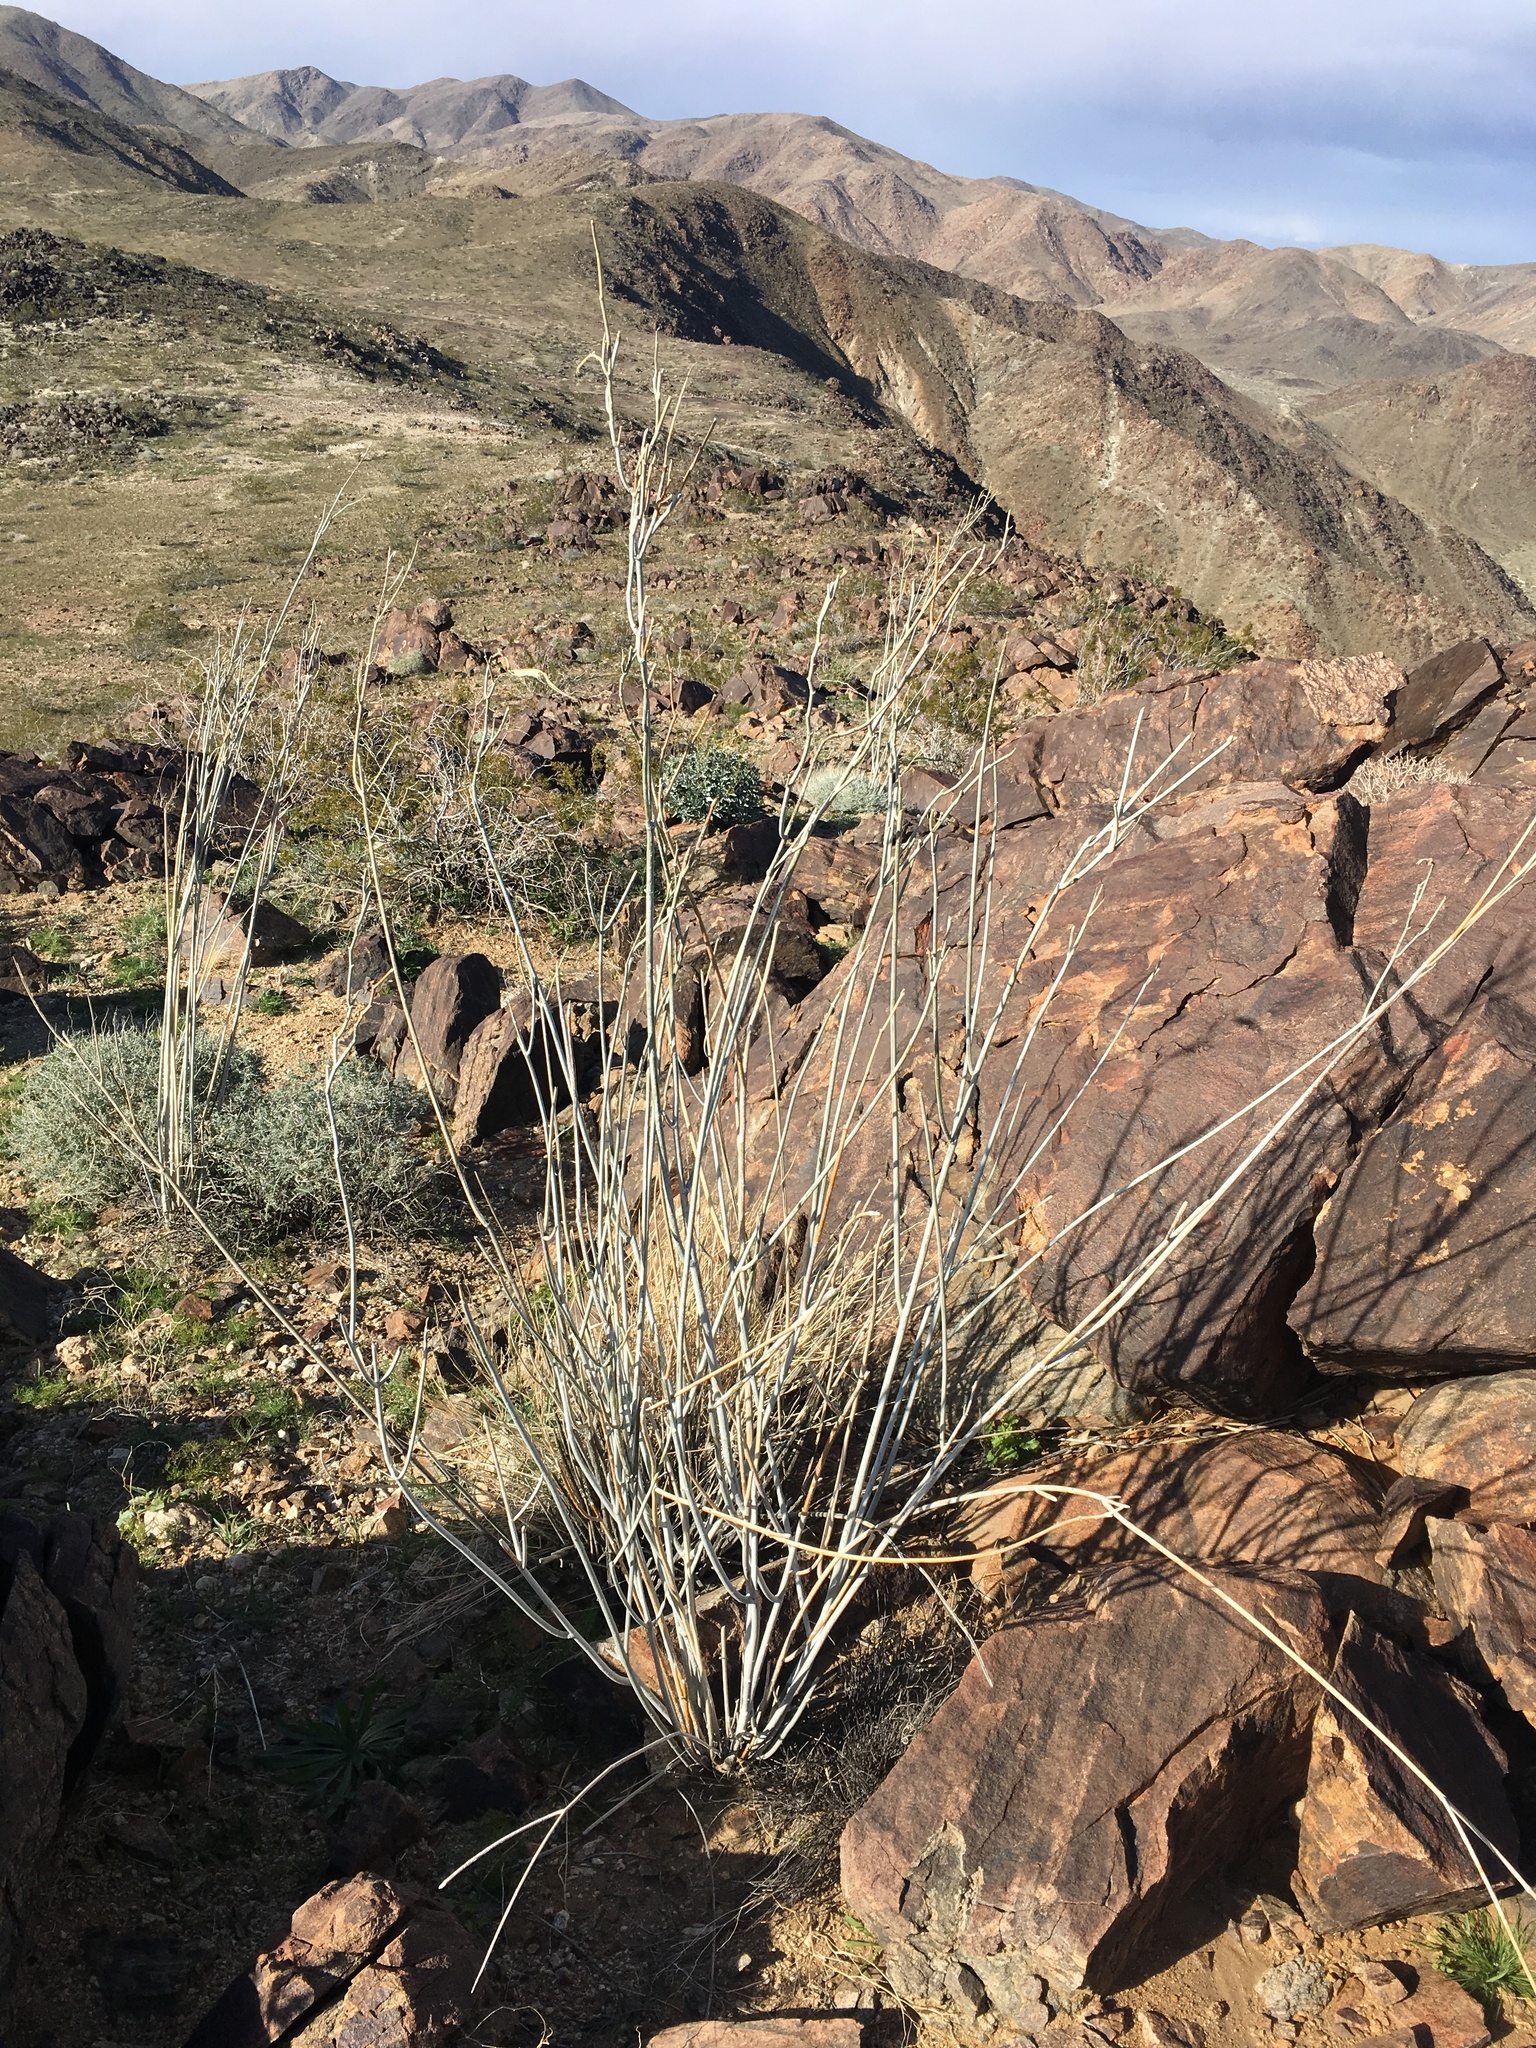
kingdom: Plantae
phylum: Tracheophyta
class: Magnoliopsida
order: Gentianales
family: Apocynaceae
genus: Asclepias
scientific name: Asclepias albicans
